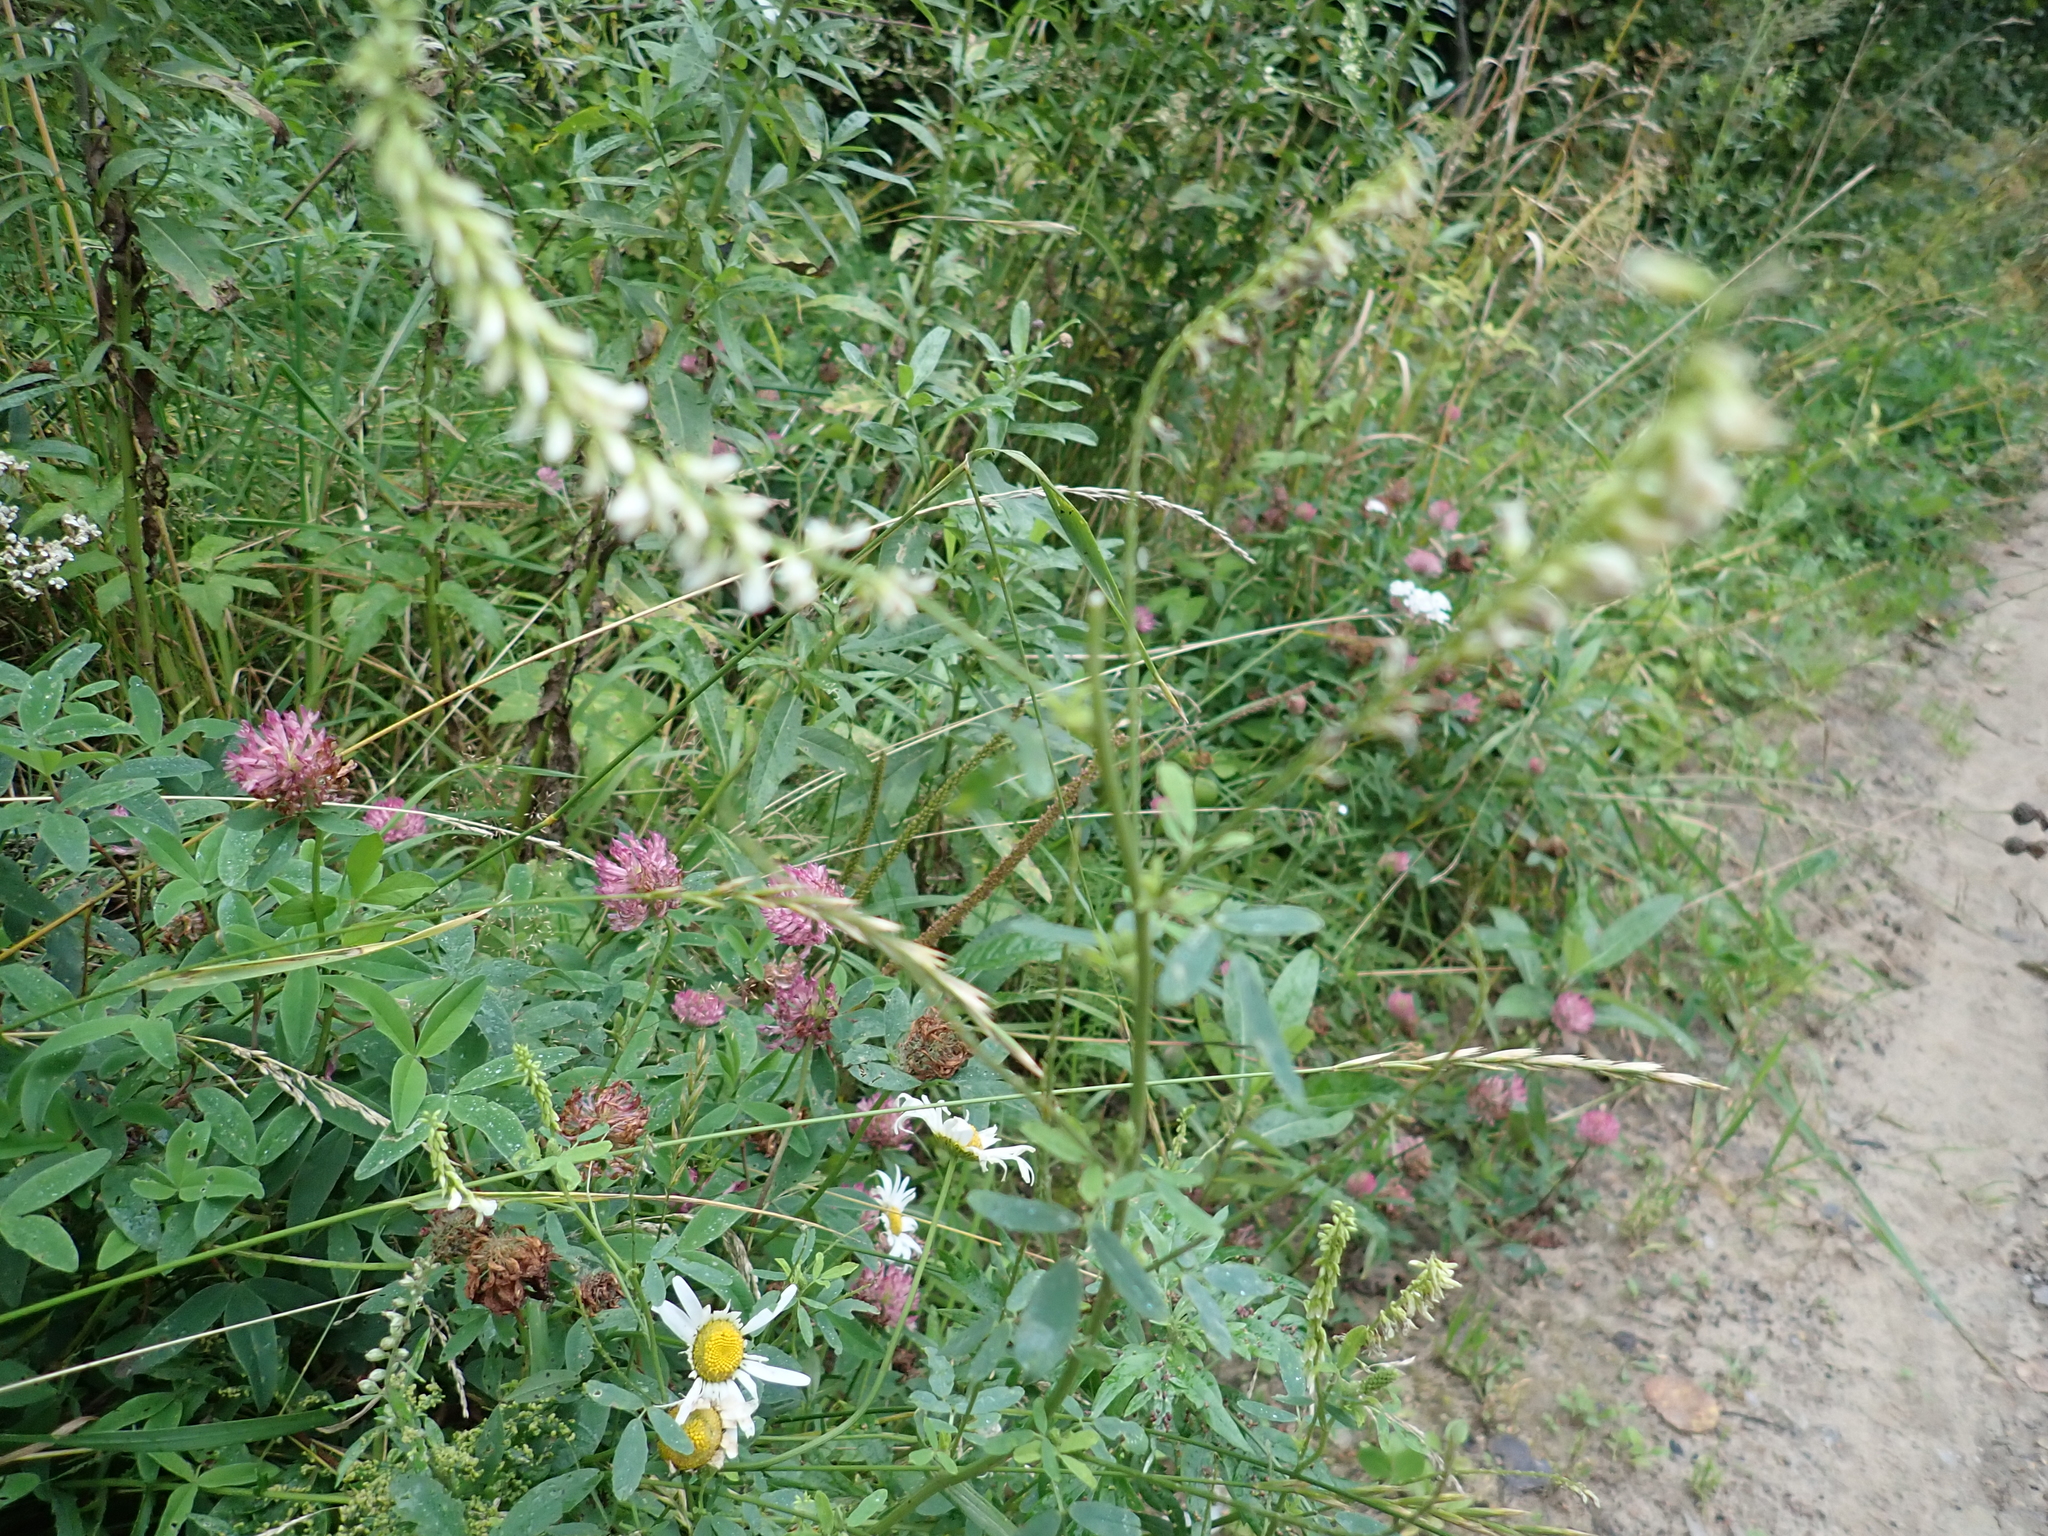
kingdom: Plantae
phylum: Tracheophyta
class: Magnoliopsida
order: Fabales
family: Fabaceae
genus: Melilotus
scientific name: Melilotus albus
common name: White melilot
